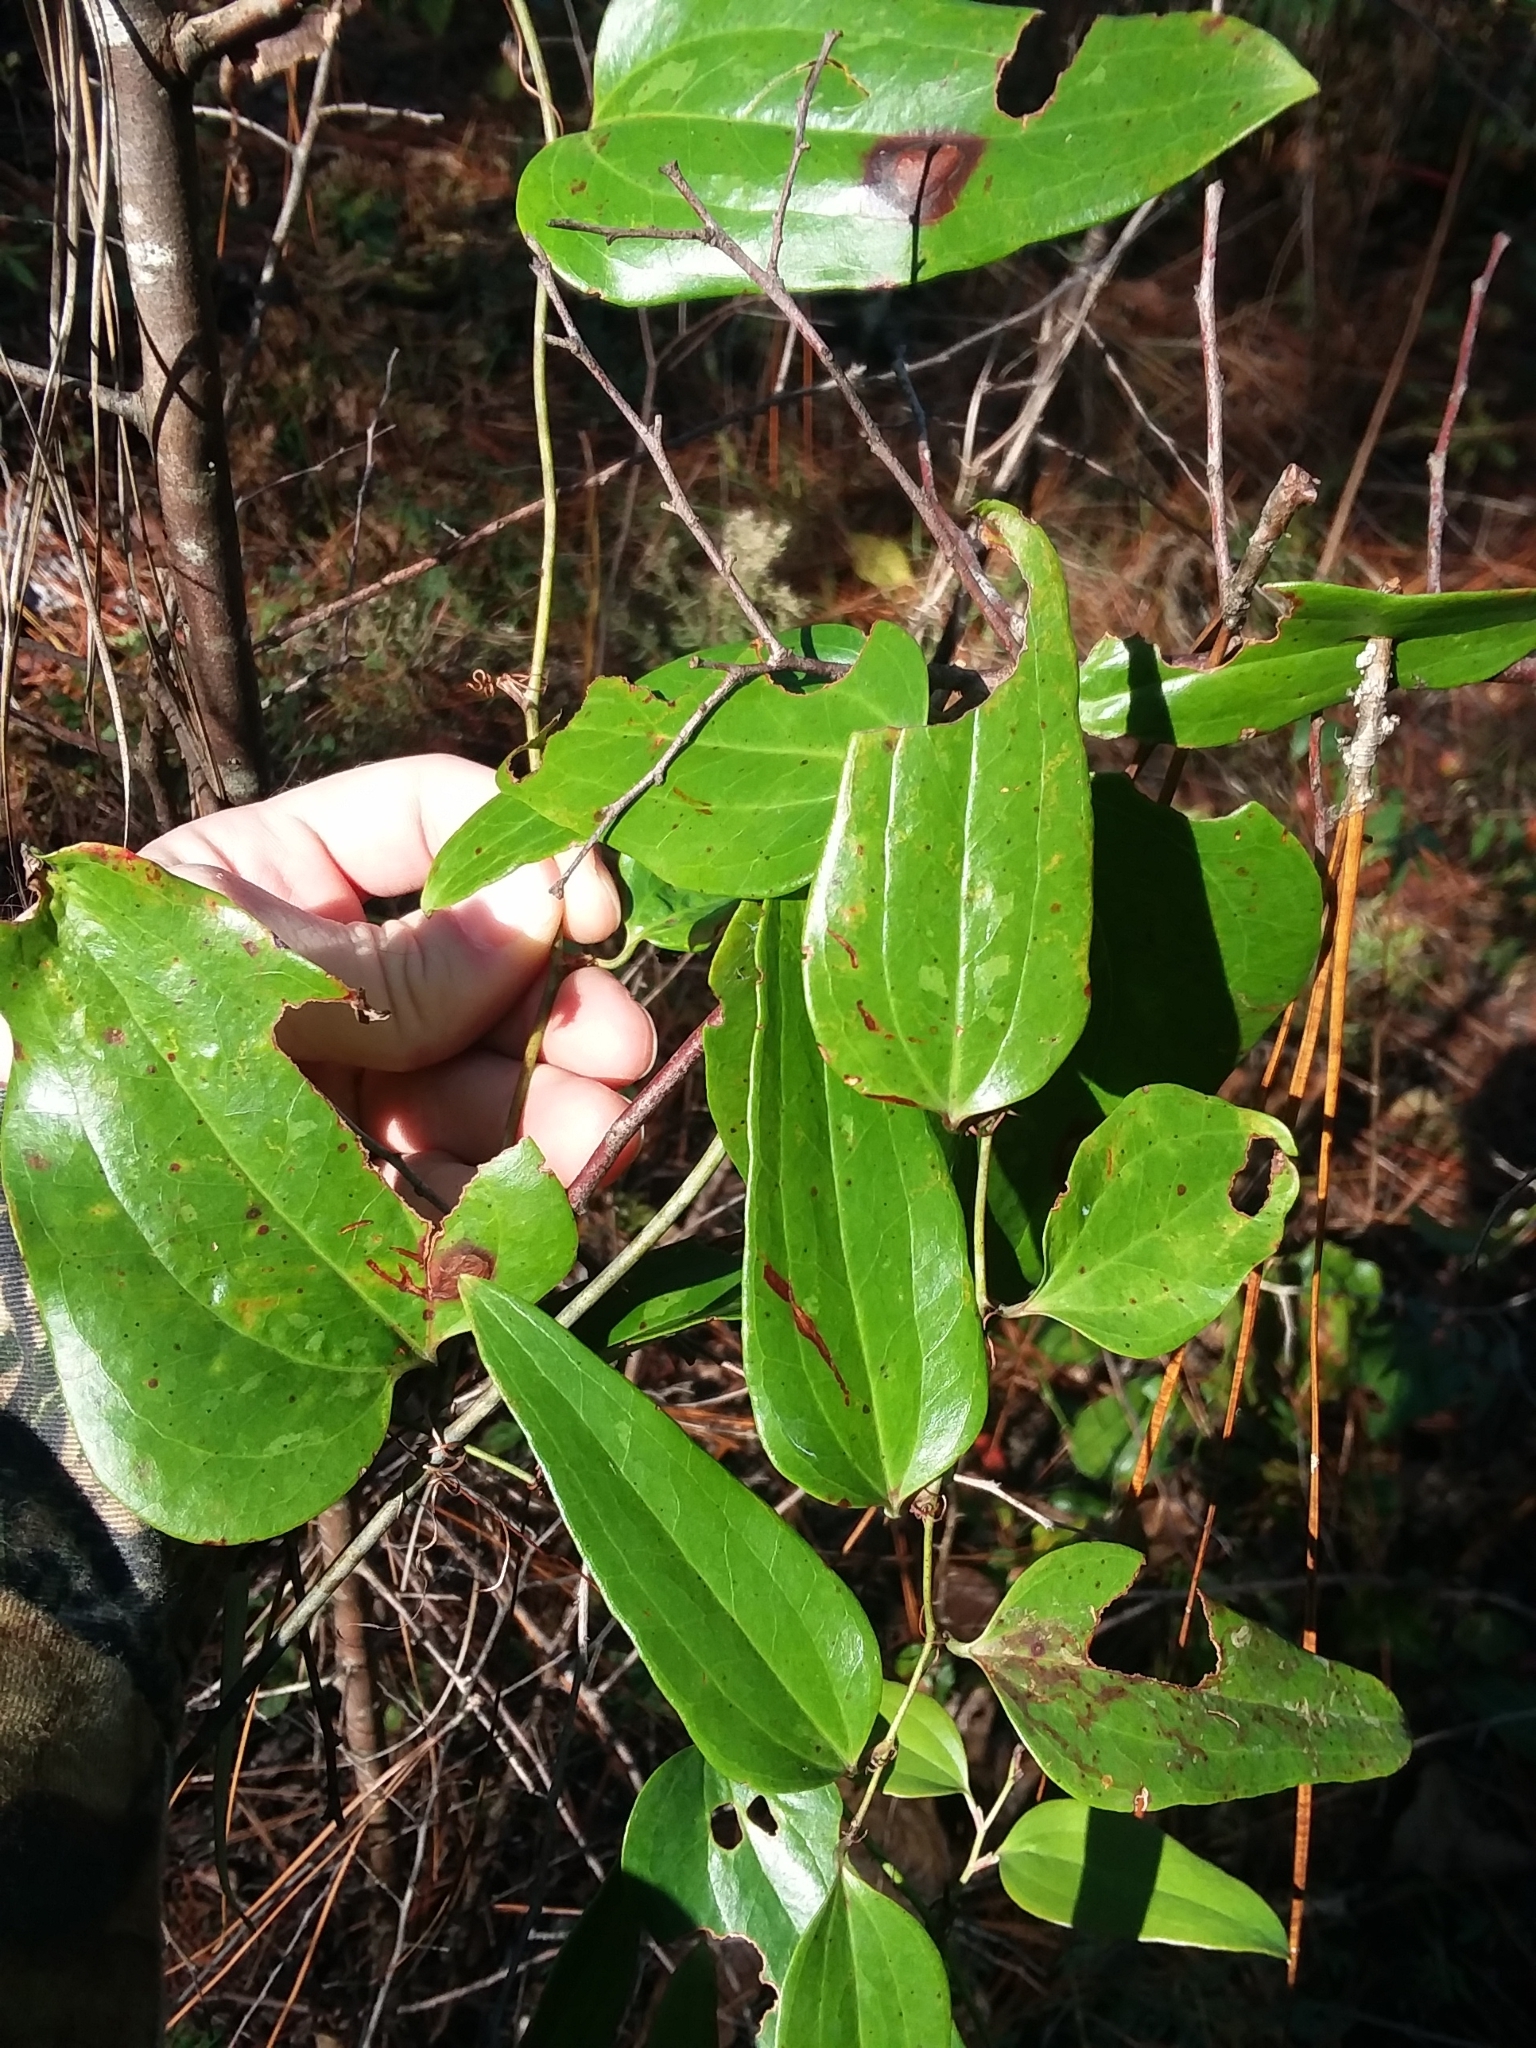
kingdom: Plantae
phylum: Tracheophyta
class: Liliopsida
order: Liliales
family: Smilacaceae
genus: Smilax
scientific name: Smilax glauca
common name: Cat greenbrier
